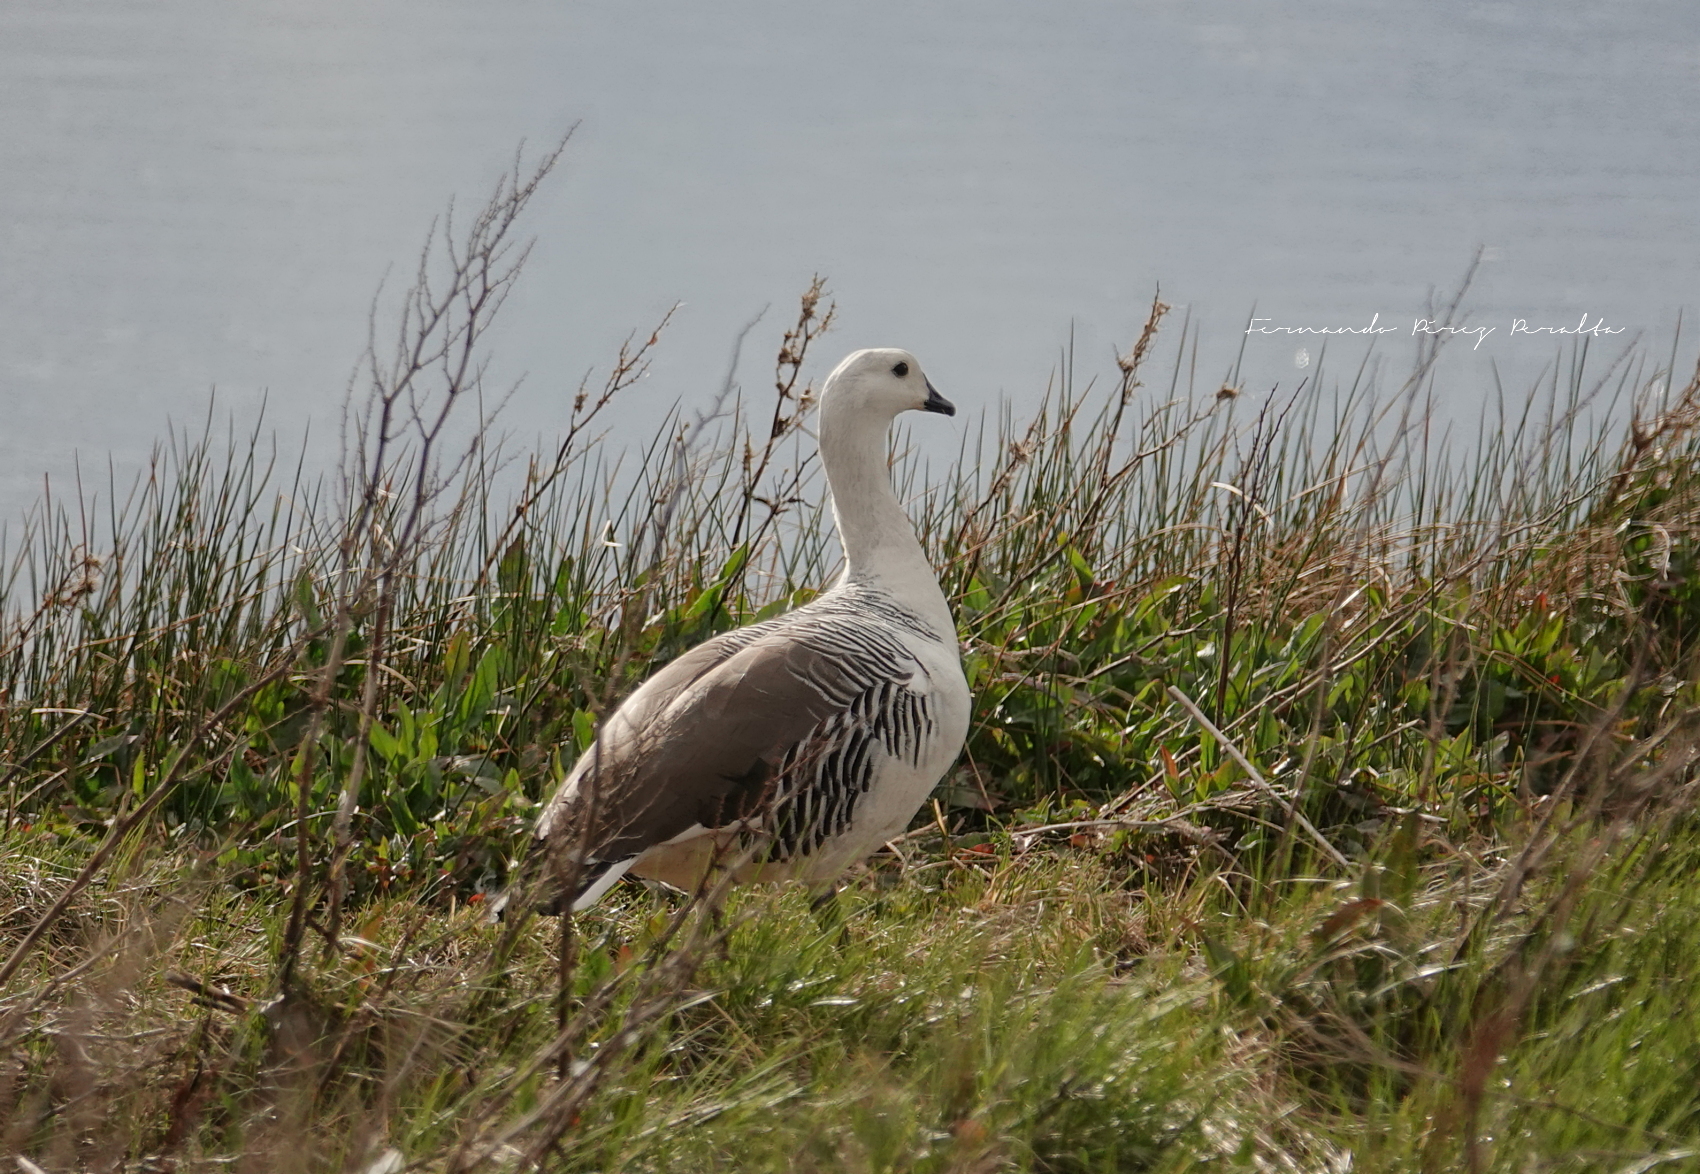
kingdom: Animalia
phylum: Chordata
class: Aves
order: Anseriformes
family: Anatidae
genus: Chloephaga
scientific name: Chloephaga picta
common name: Upland goose
